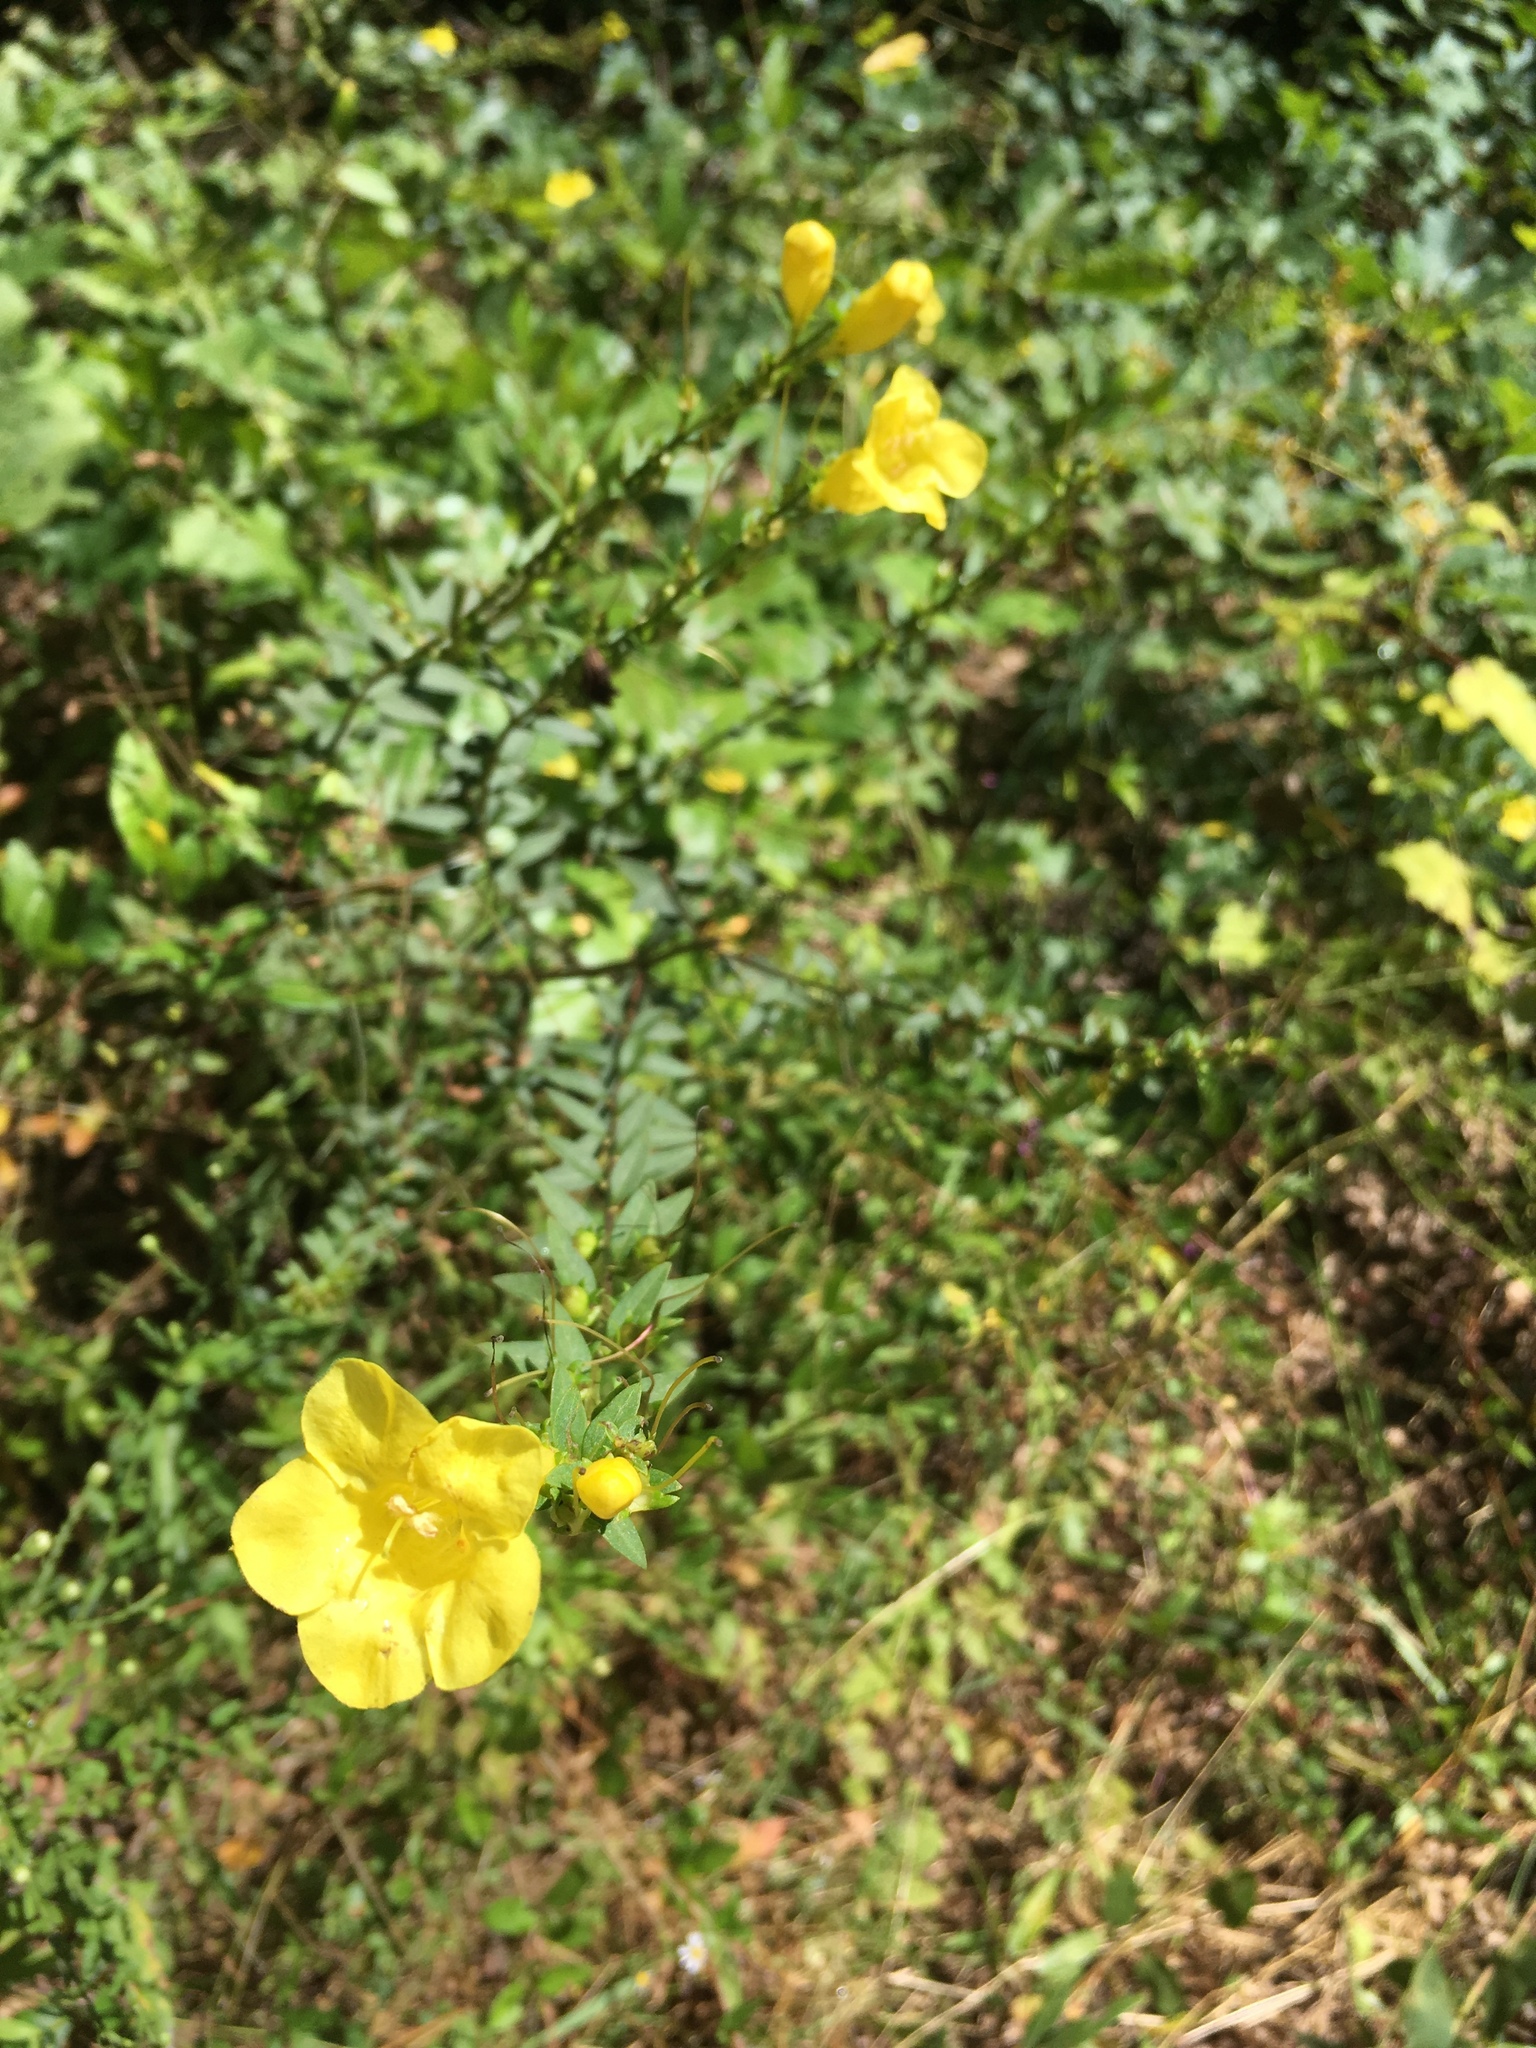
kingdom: Plantae
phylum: Tracheophyta
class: Magnoliopsida
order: Lamiales
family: Orobanchaceae
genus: Aureolaria
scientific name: Aureolaria levigata
